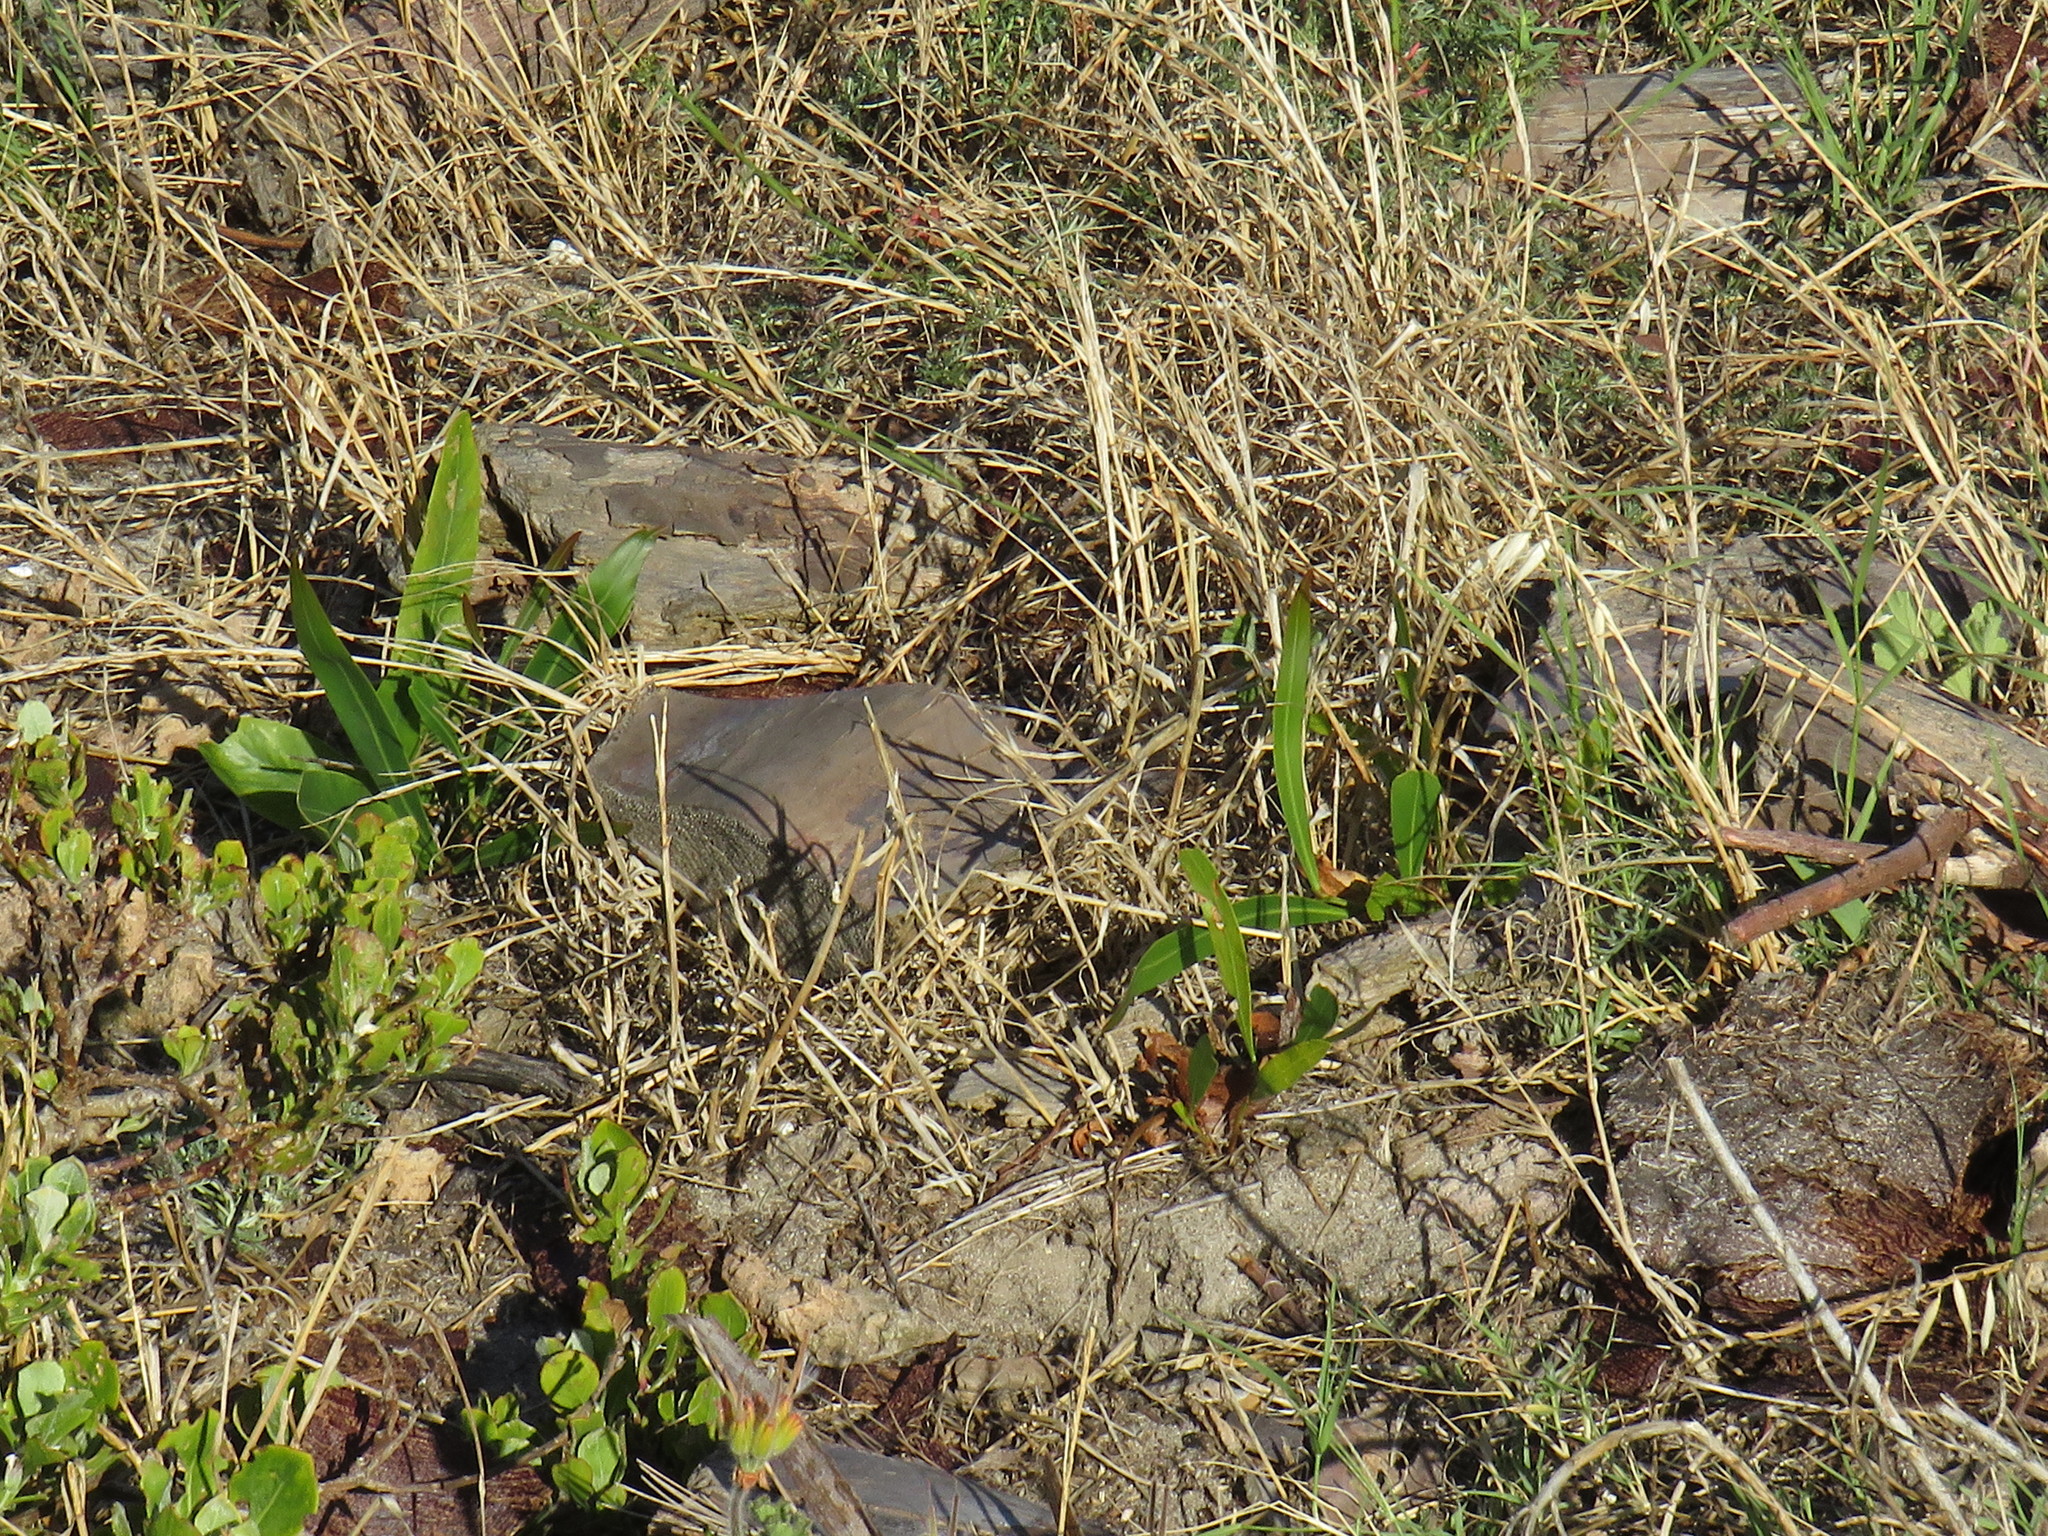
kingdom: Plantae
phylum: Tracheophyta
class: Magnoliopsida
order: Fabales
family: Fabaceae
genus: Acacia
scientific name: Acacia saligna
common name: Orange wattle
